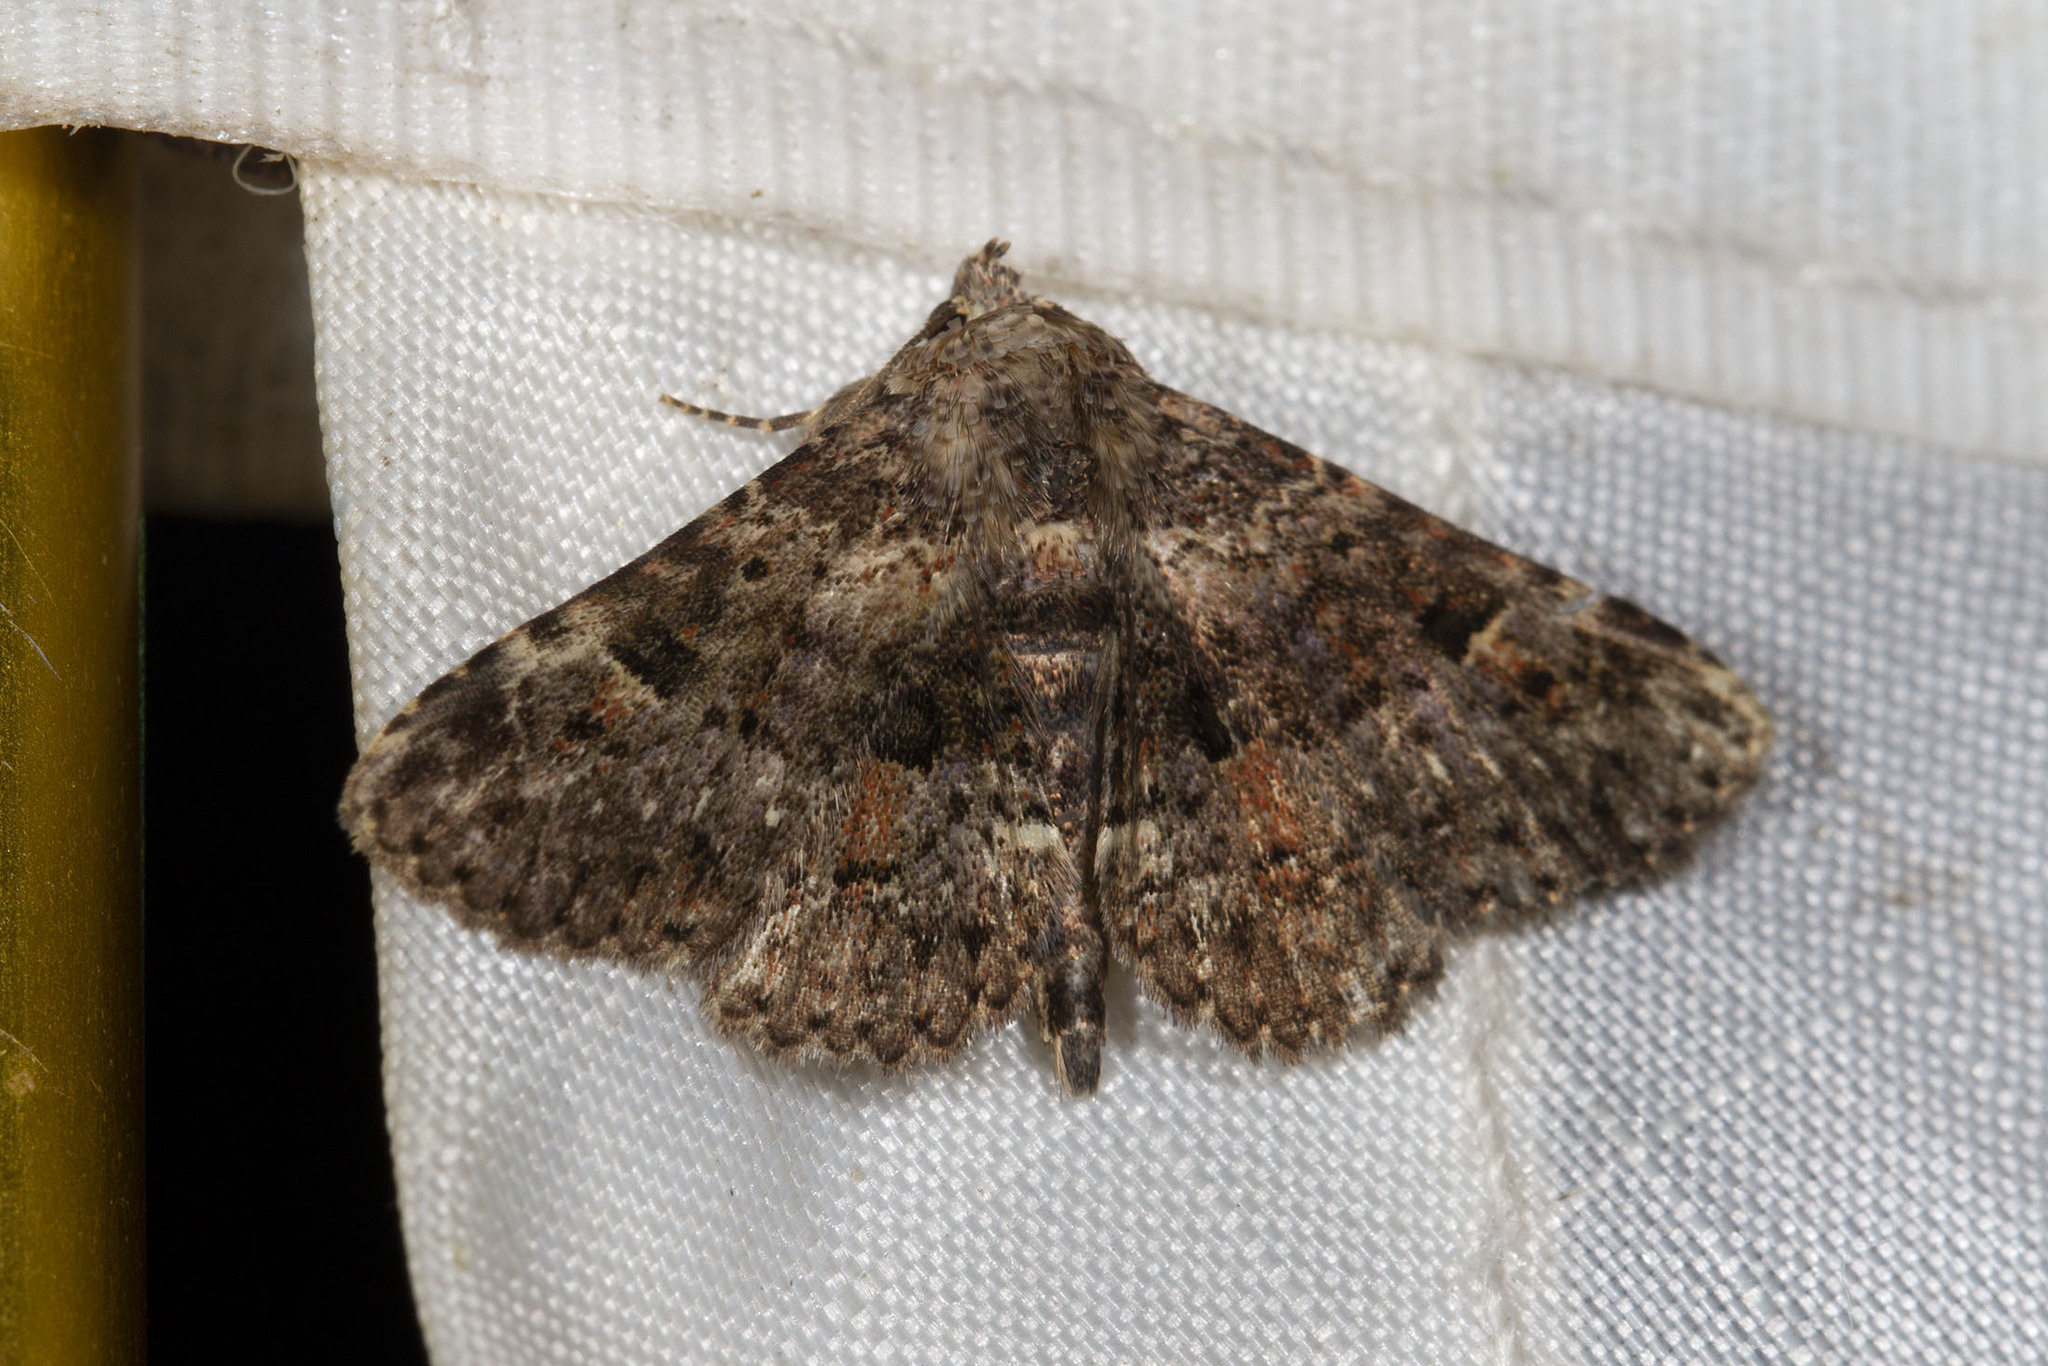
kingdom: Animalia
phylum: Arthropoda
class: Insecta
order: Lepidoptera
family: Erebidae
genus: Metalectra
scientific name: Metalectra discalis
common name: Common fungus moth
